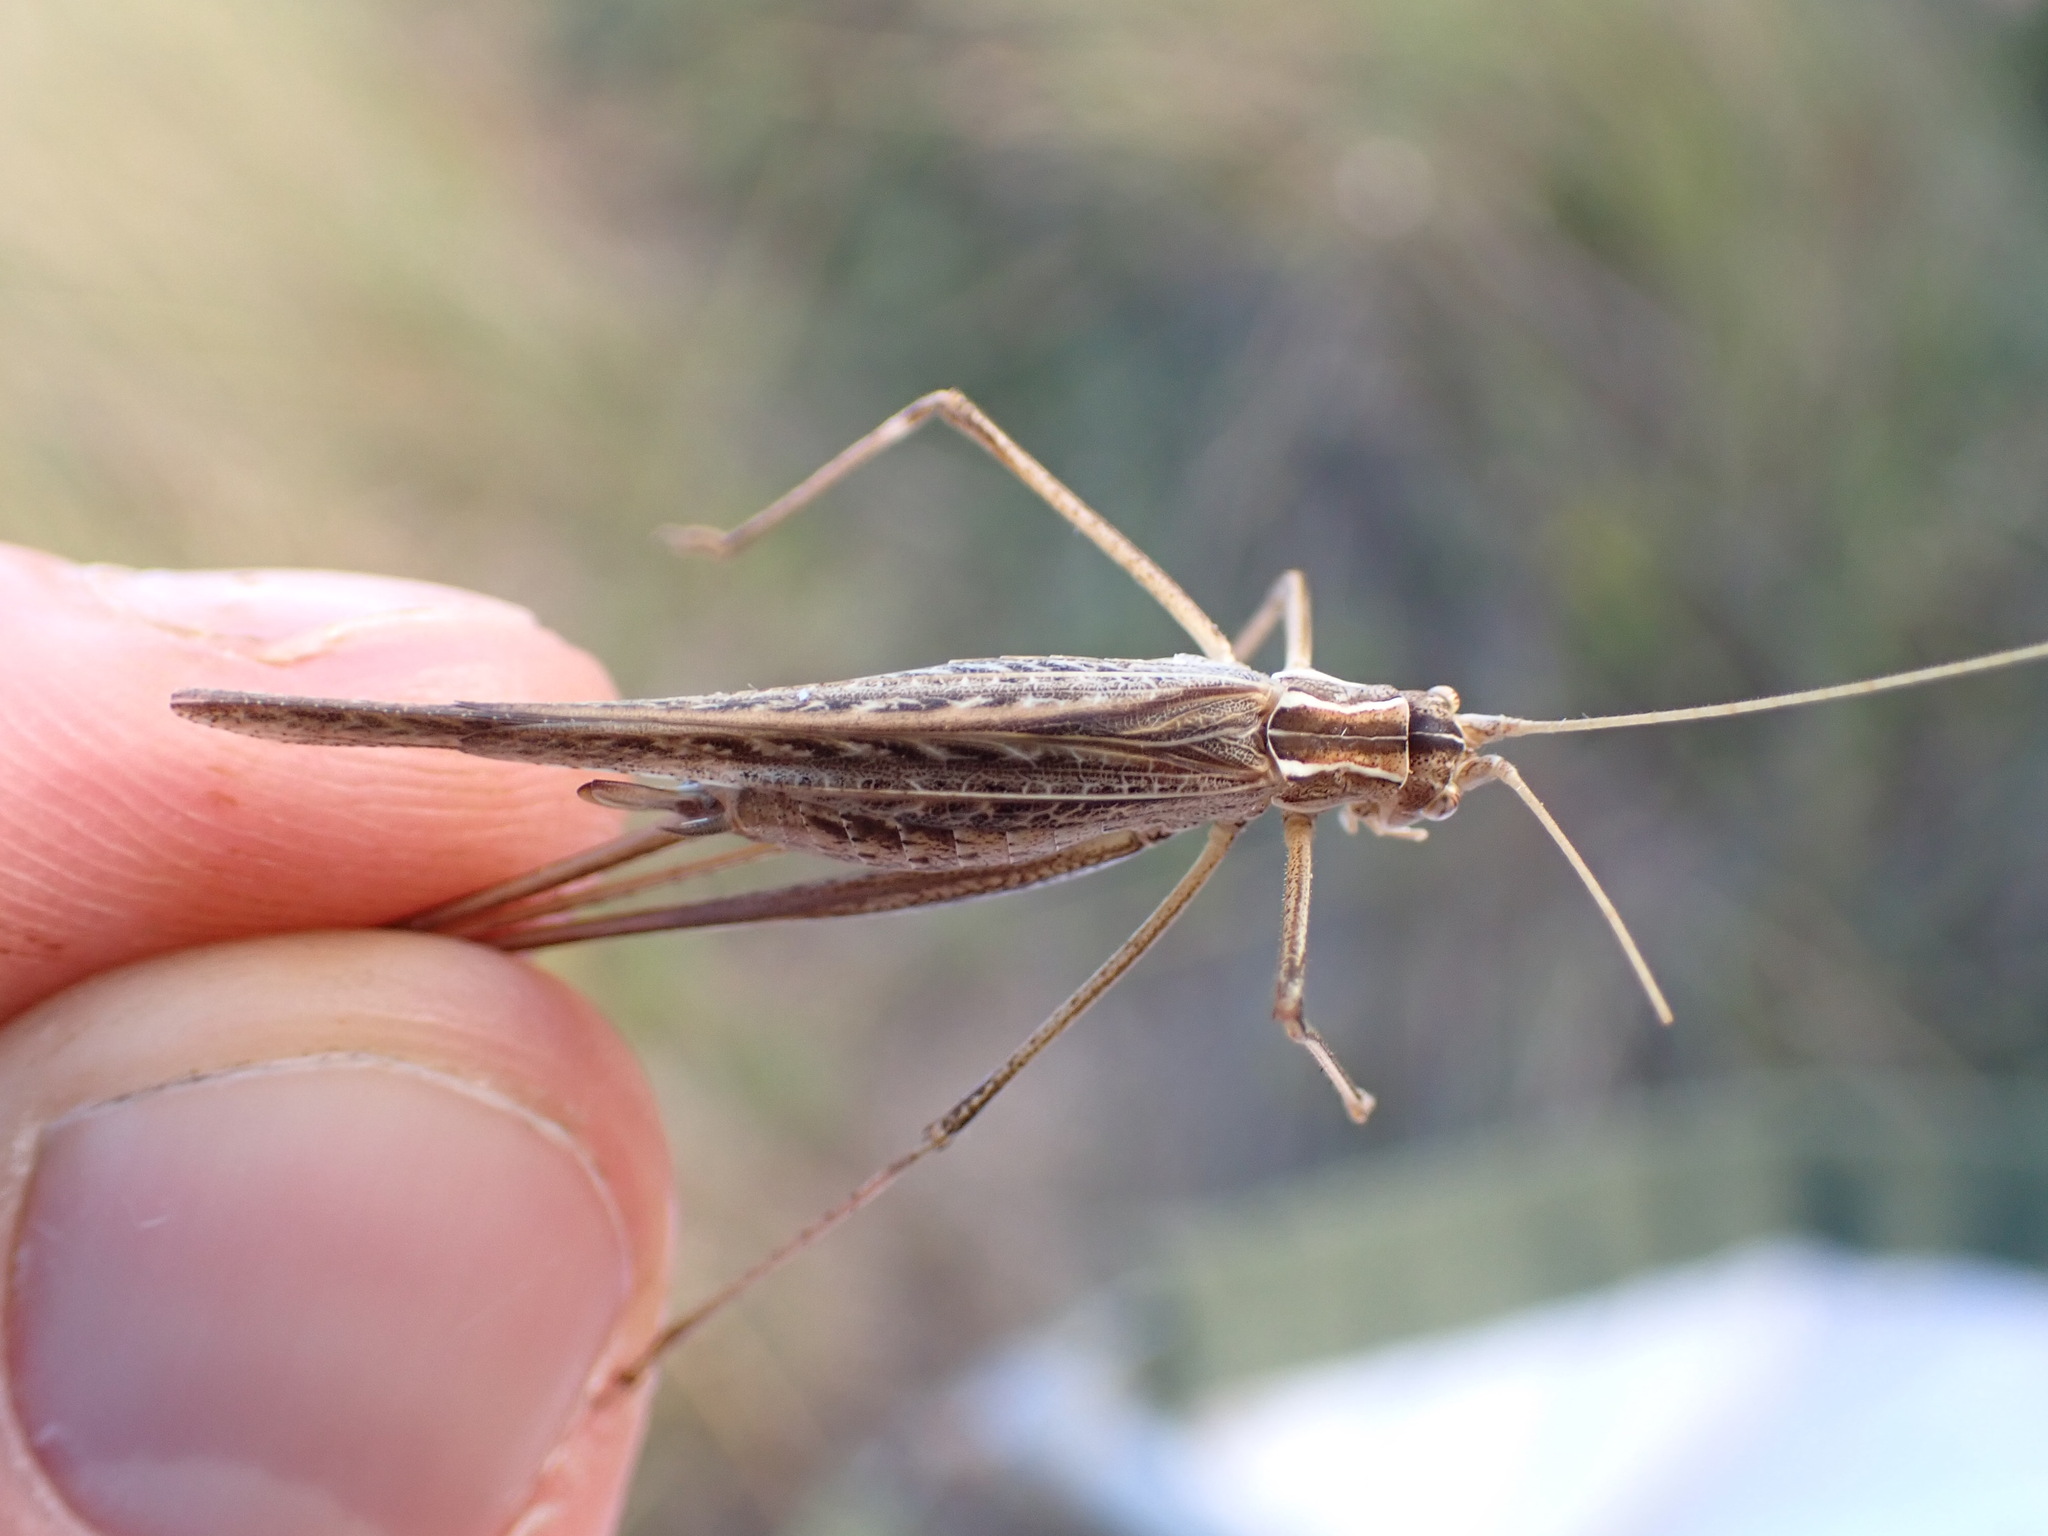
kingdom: Animalia
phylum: Arthropoda
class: Insecta
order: Orthoptera
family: Tettigoniidae
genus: Tylopsis
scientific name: Tylopsis lilifolia
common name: Lily bush-cricket
